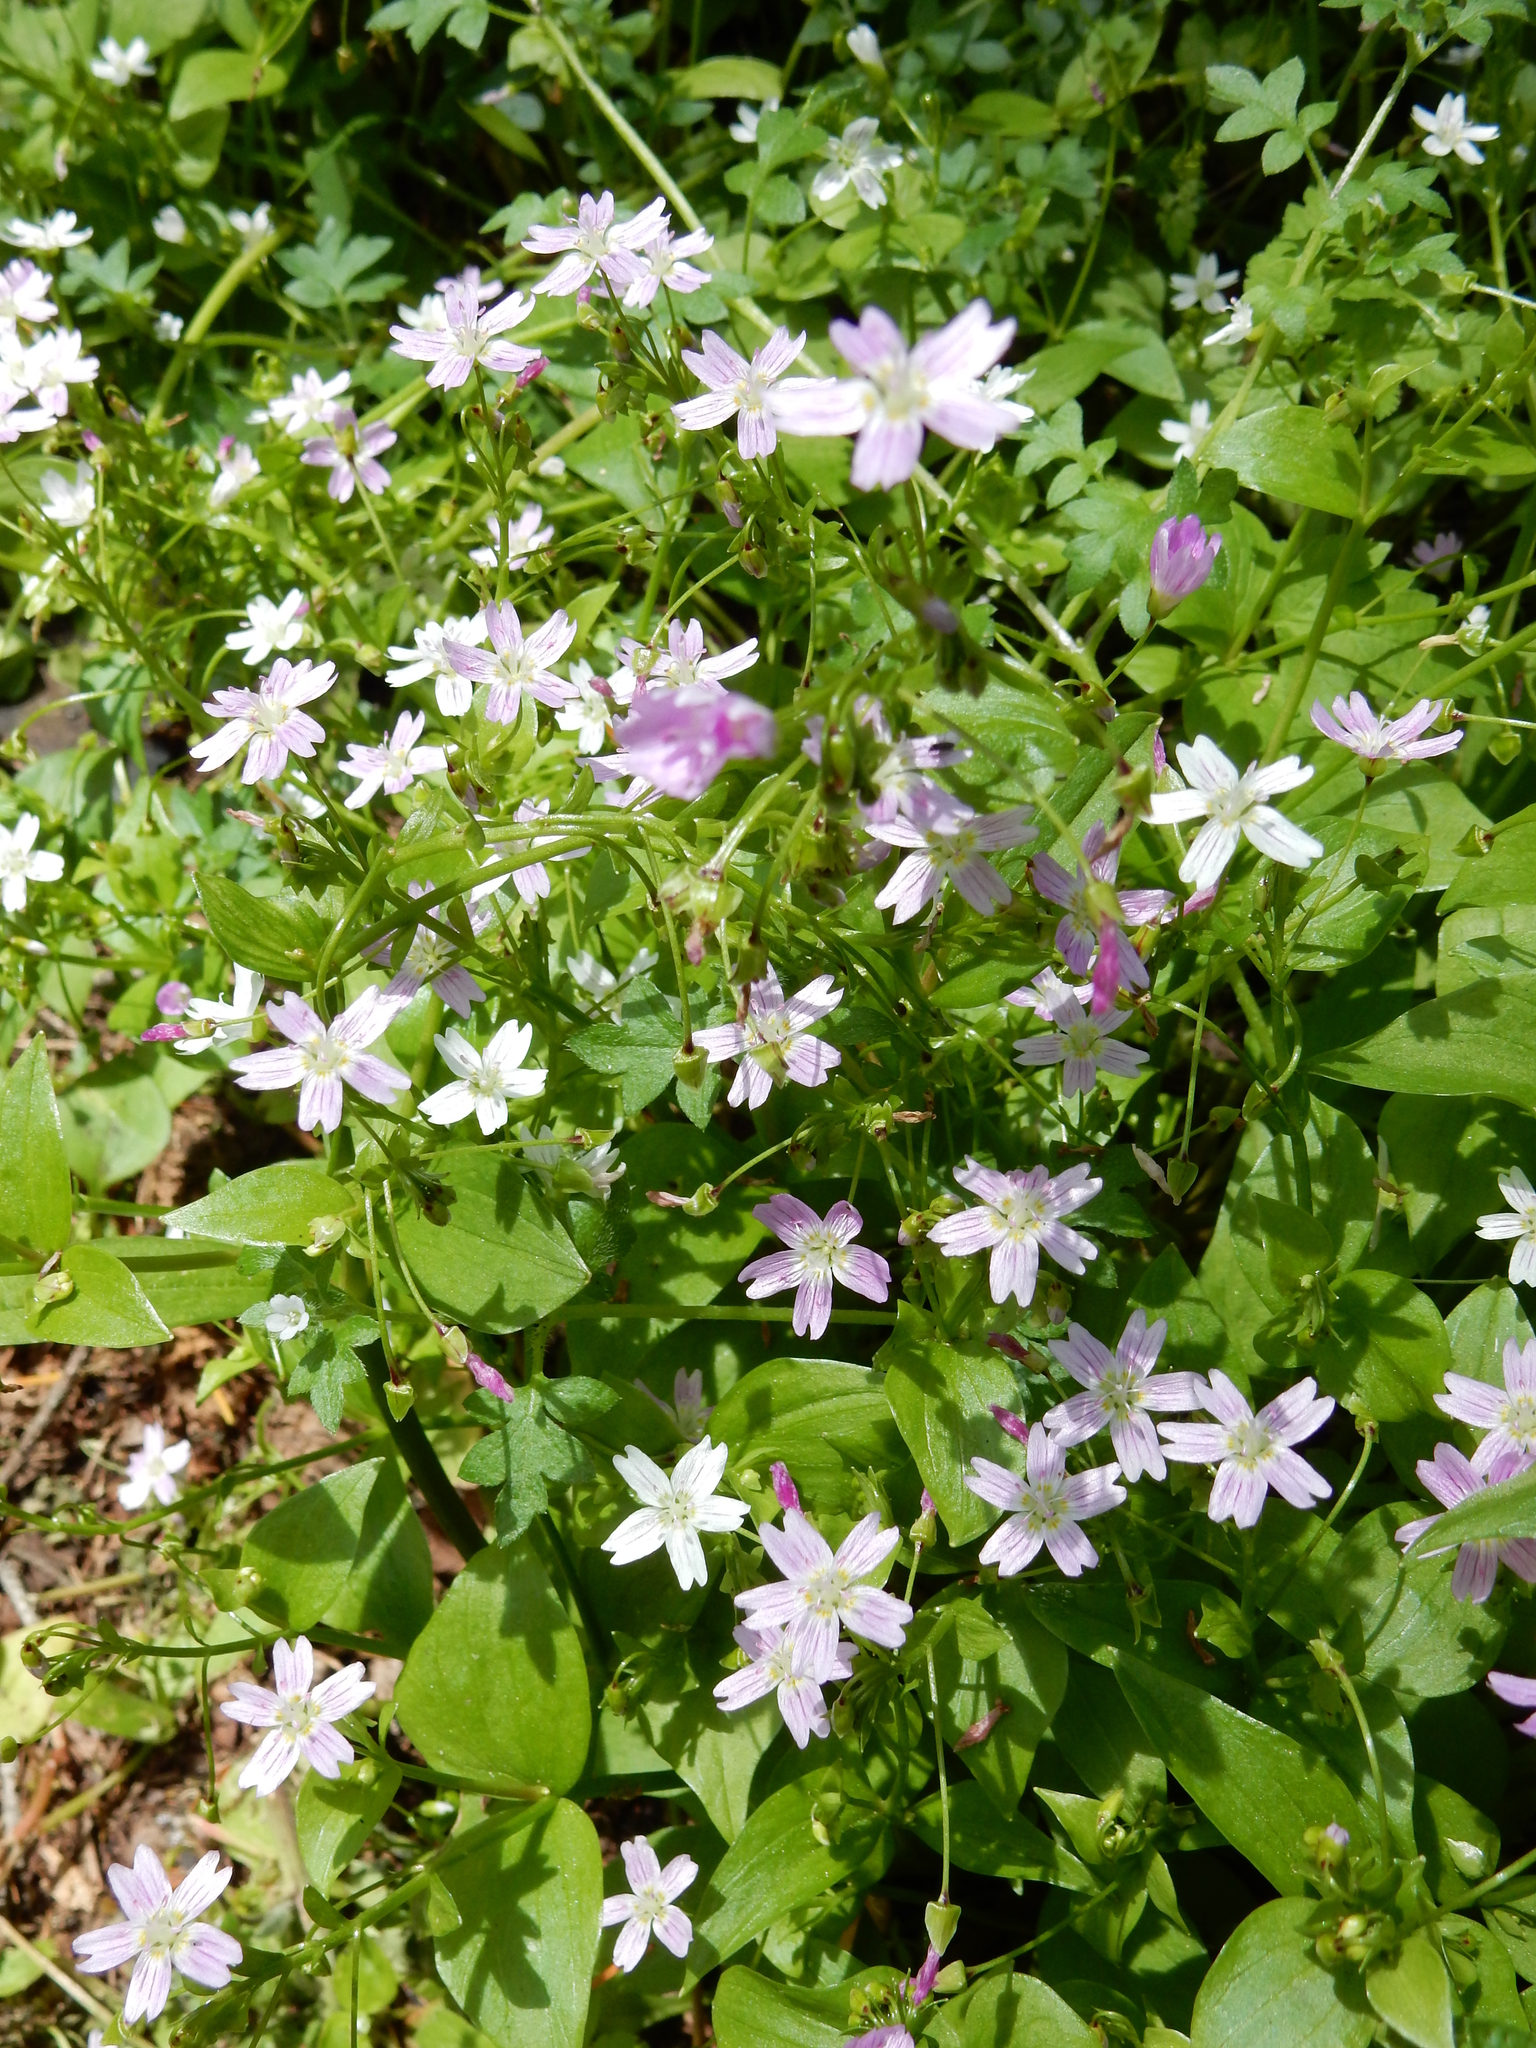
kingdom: Plantae
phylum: Tracheophyta
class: Magnoliopsida
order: Caryophyllales
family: Montiaceae
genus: Claytonia
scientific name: Claytonia sibirica
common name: Pink purslane
